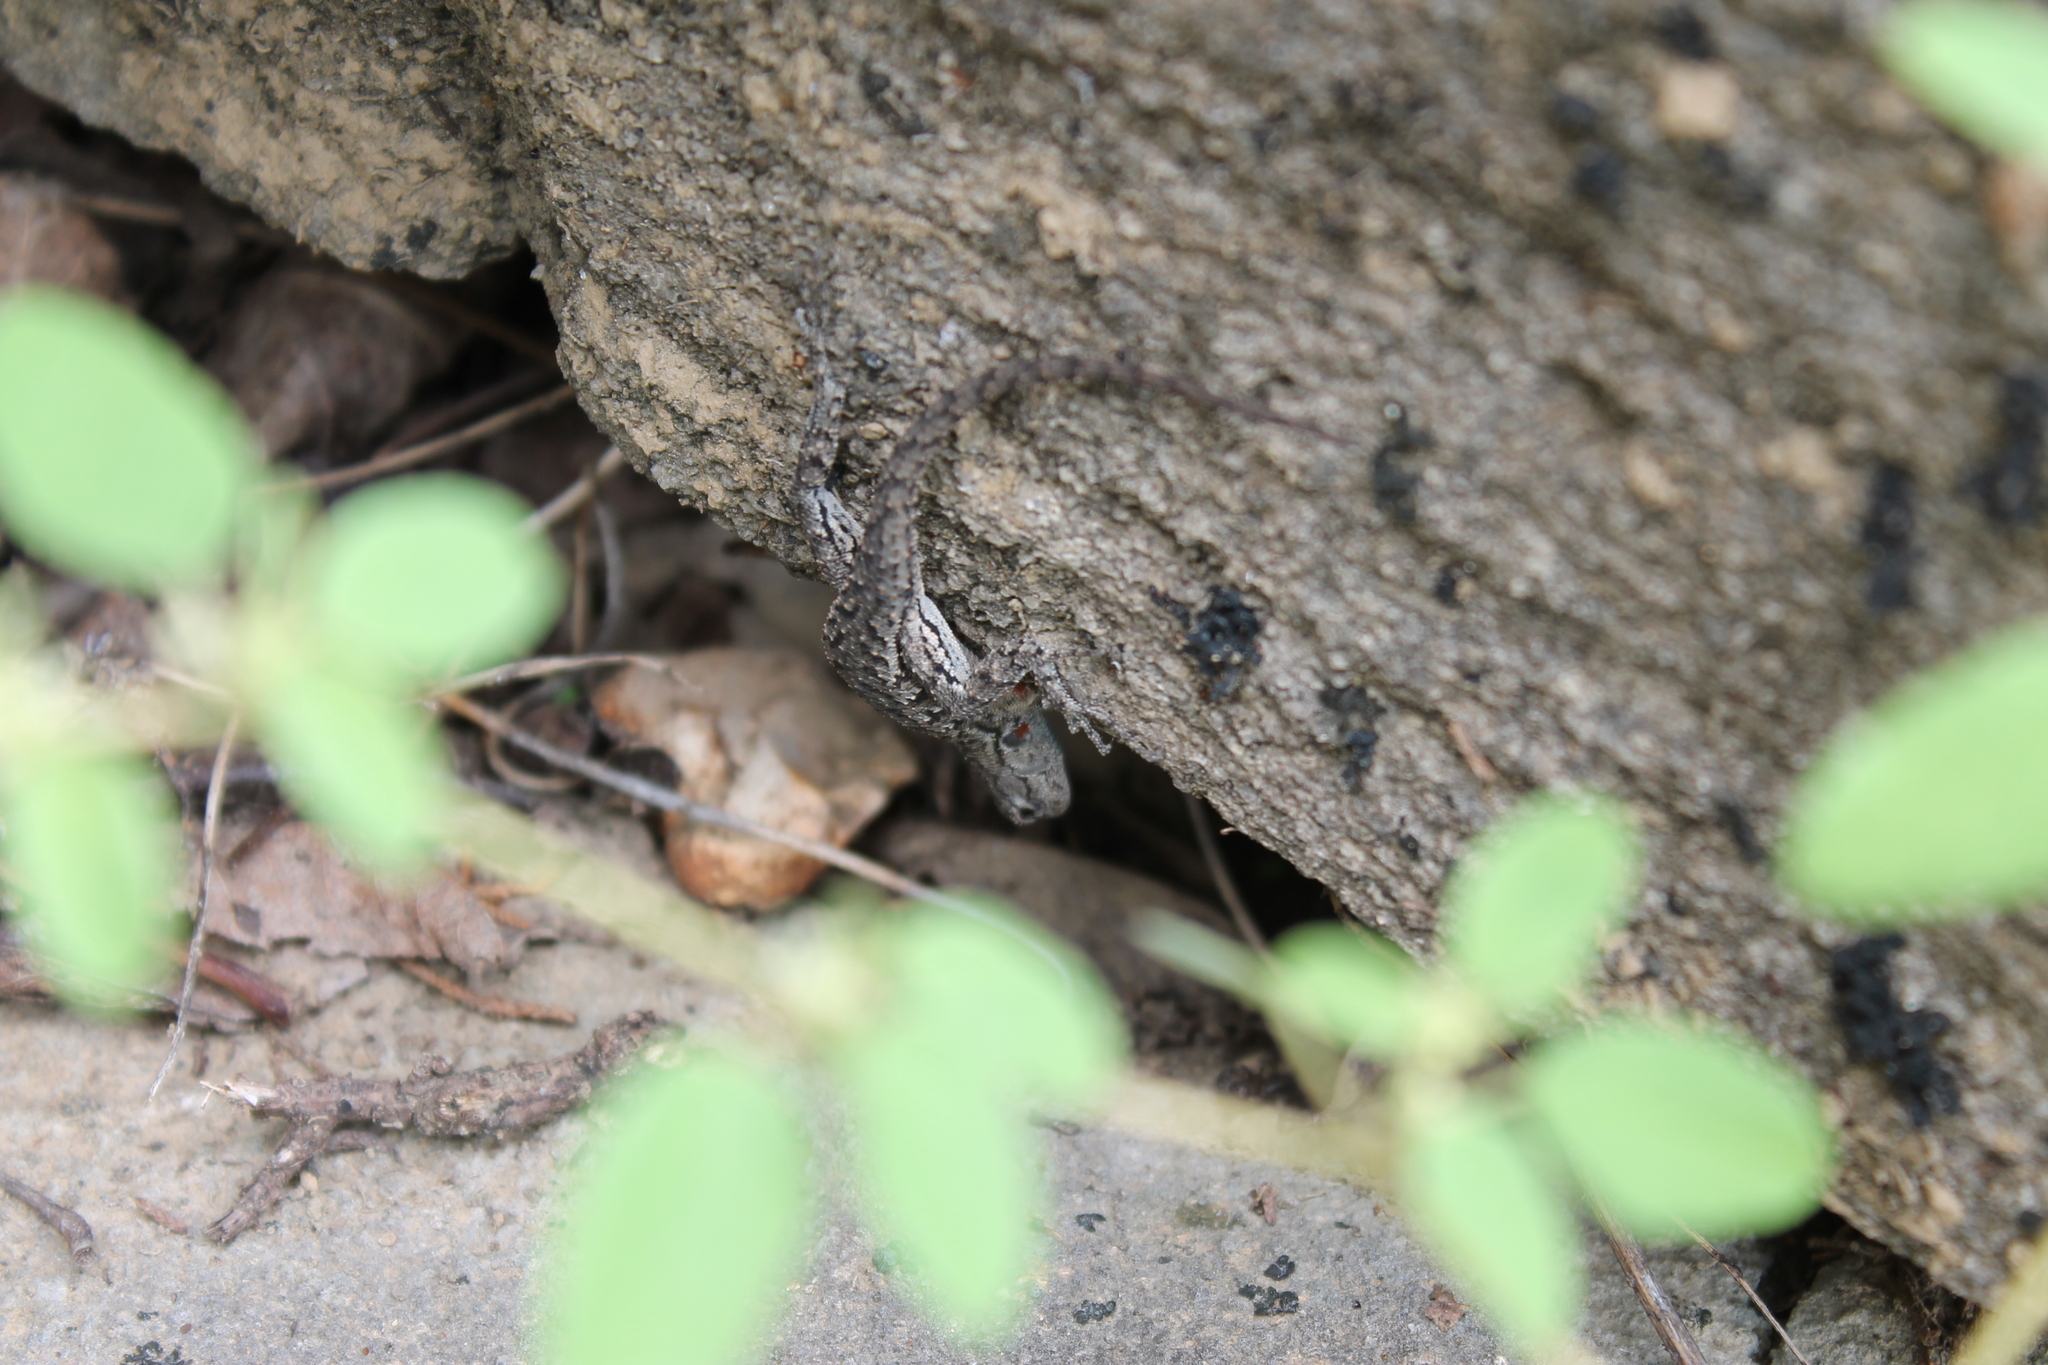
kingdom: Animalia
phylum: Chordata
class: Squamata
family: Phrynosomatidae
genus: Sceloporus
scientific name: Sceloporus undulatus
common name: Eastern fence lizard
